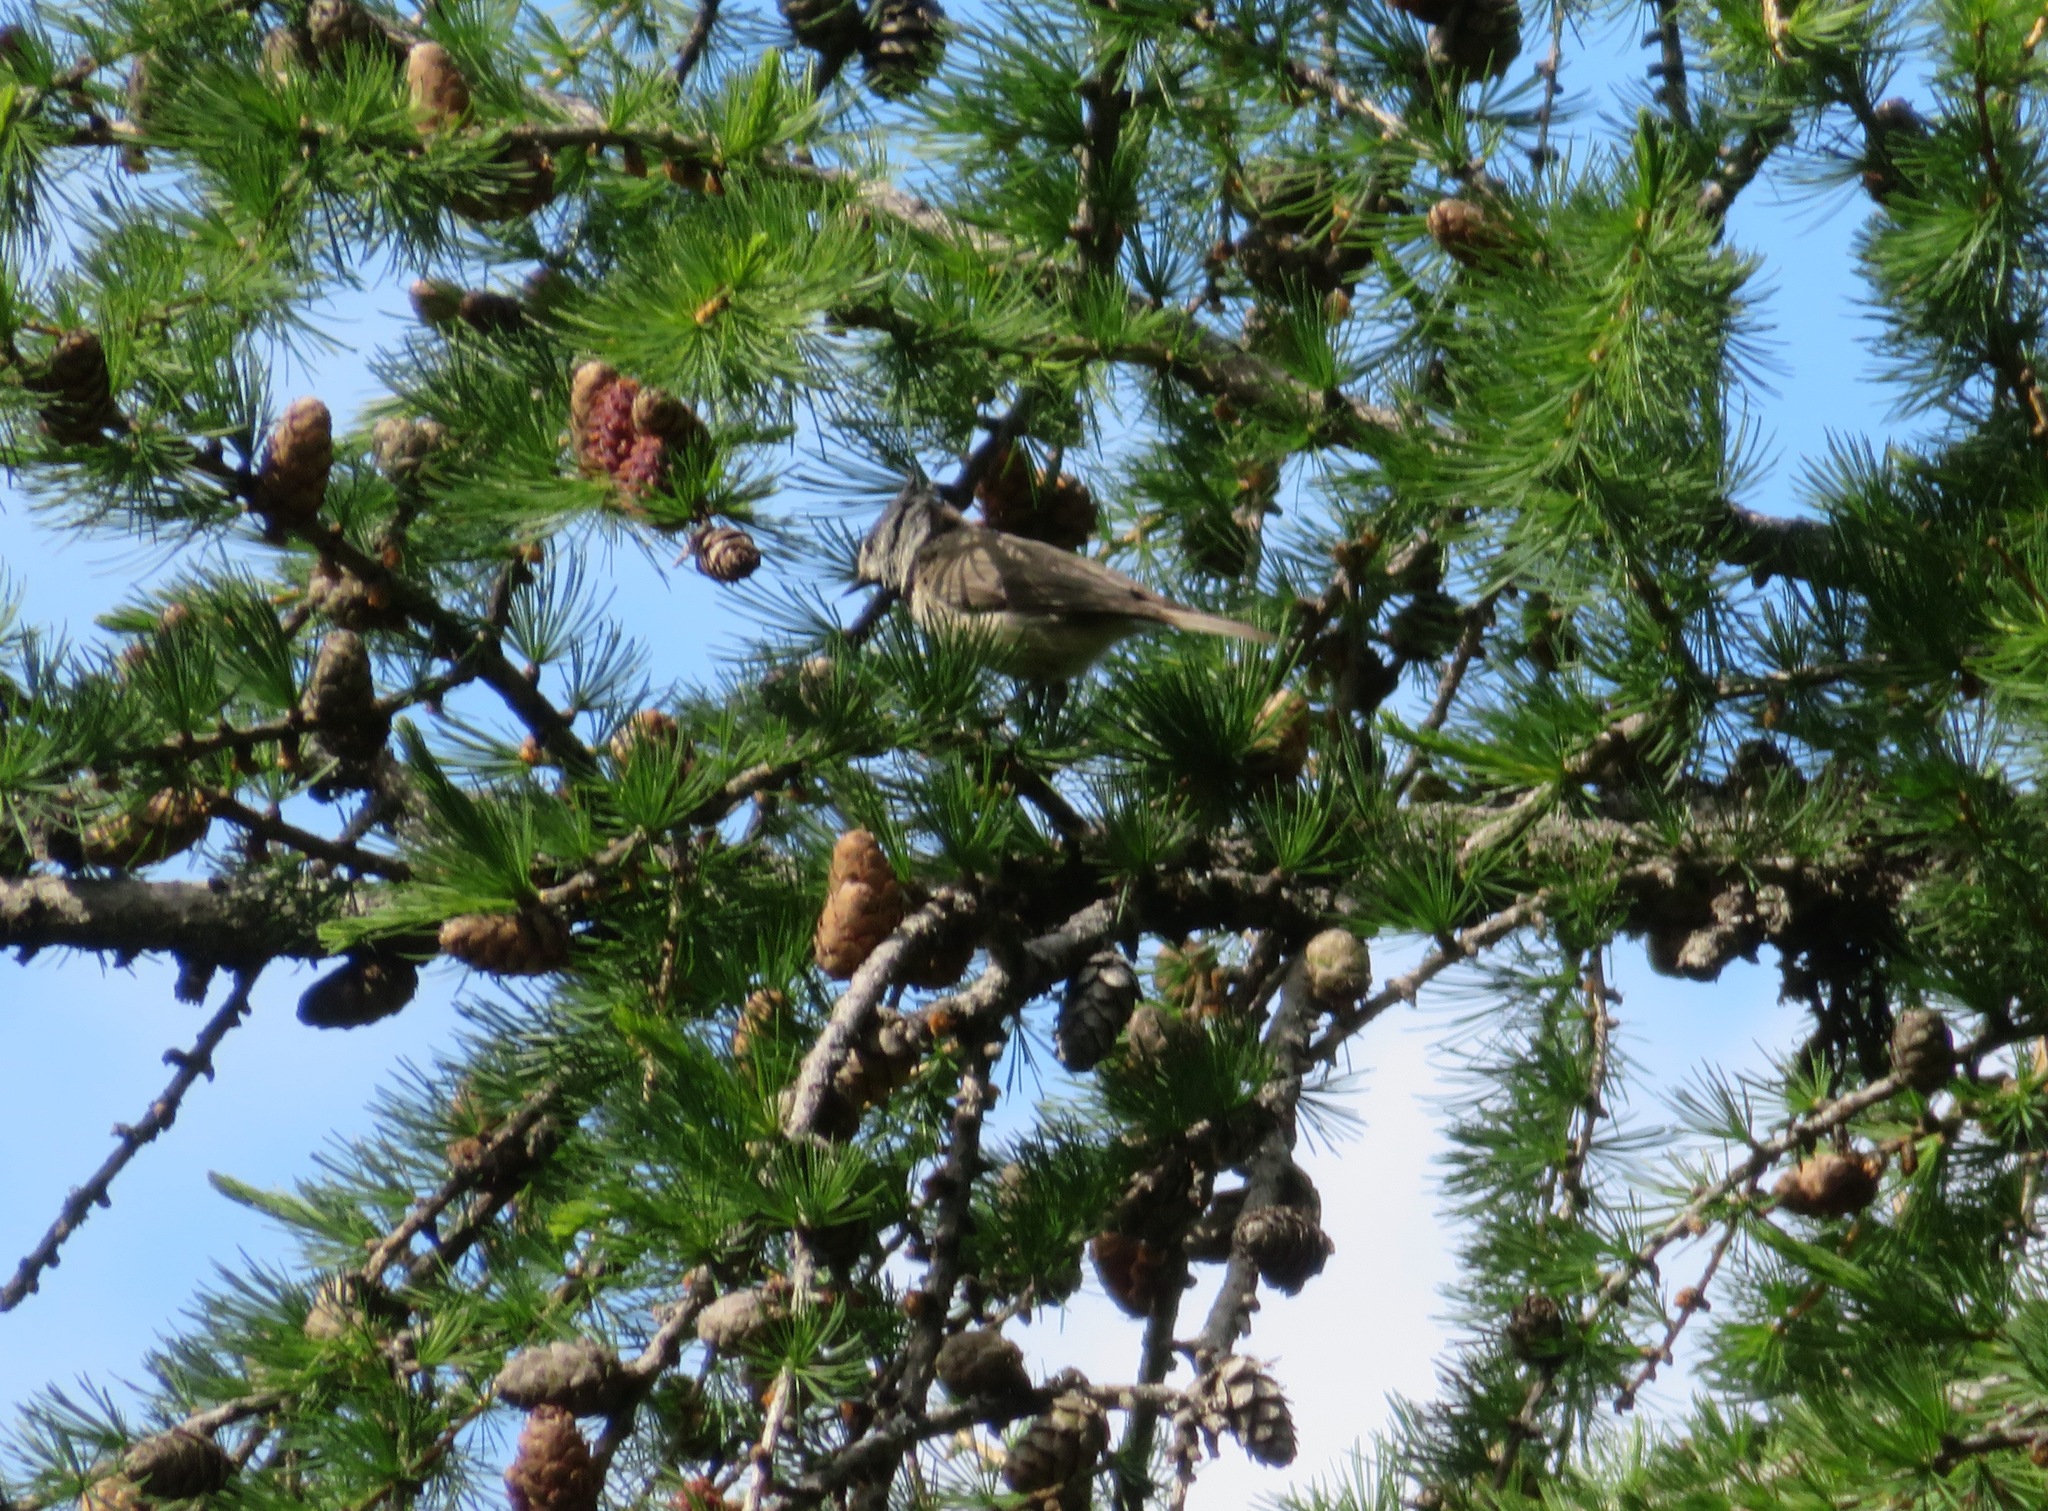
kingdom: Animalia
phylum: Chordata
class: Aves
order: Passeriformes
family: Paridae
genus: Lophophanes
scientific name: Lophophanes cristatus
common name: European crested tit
